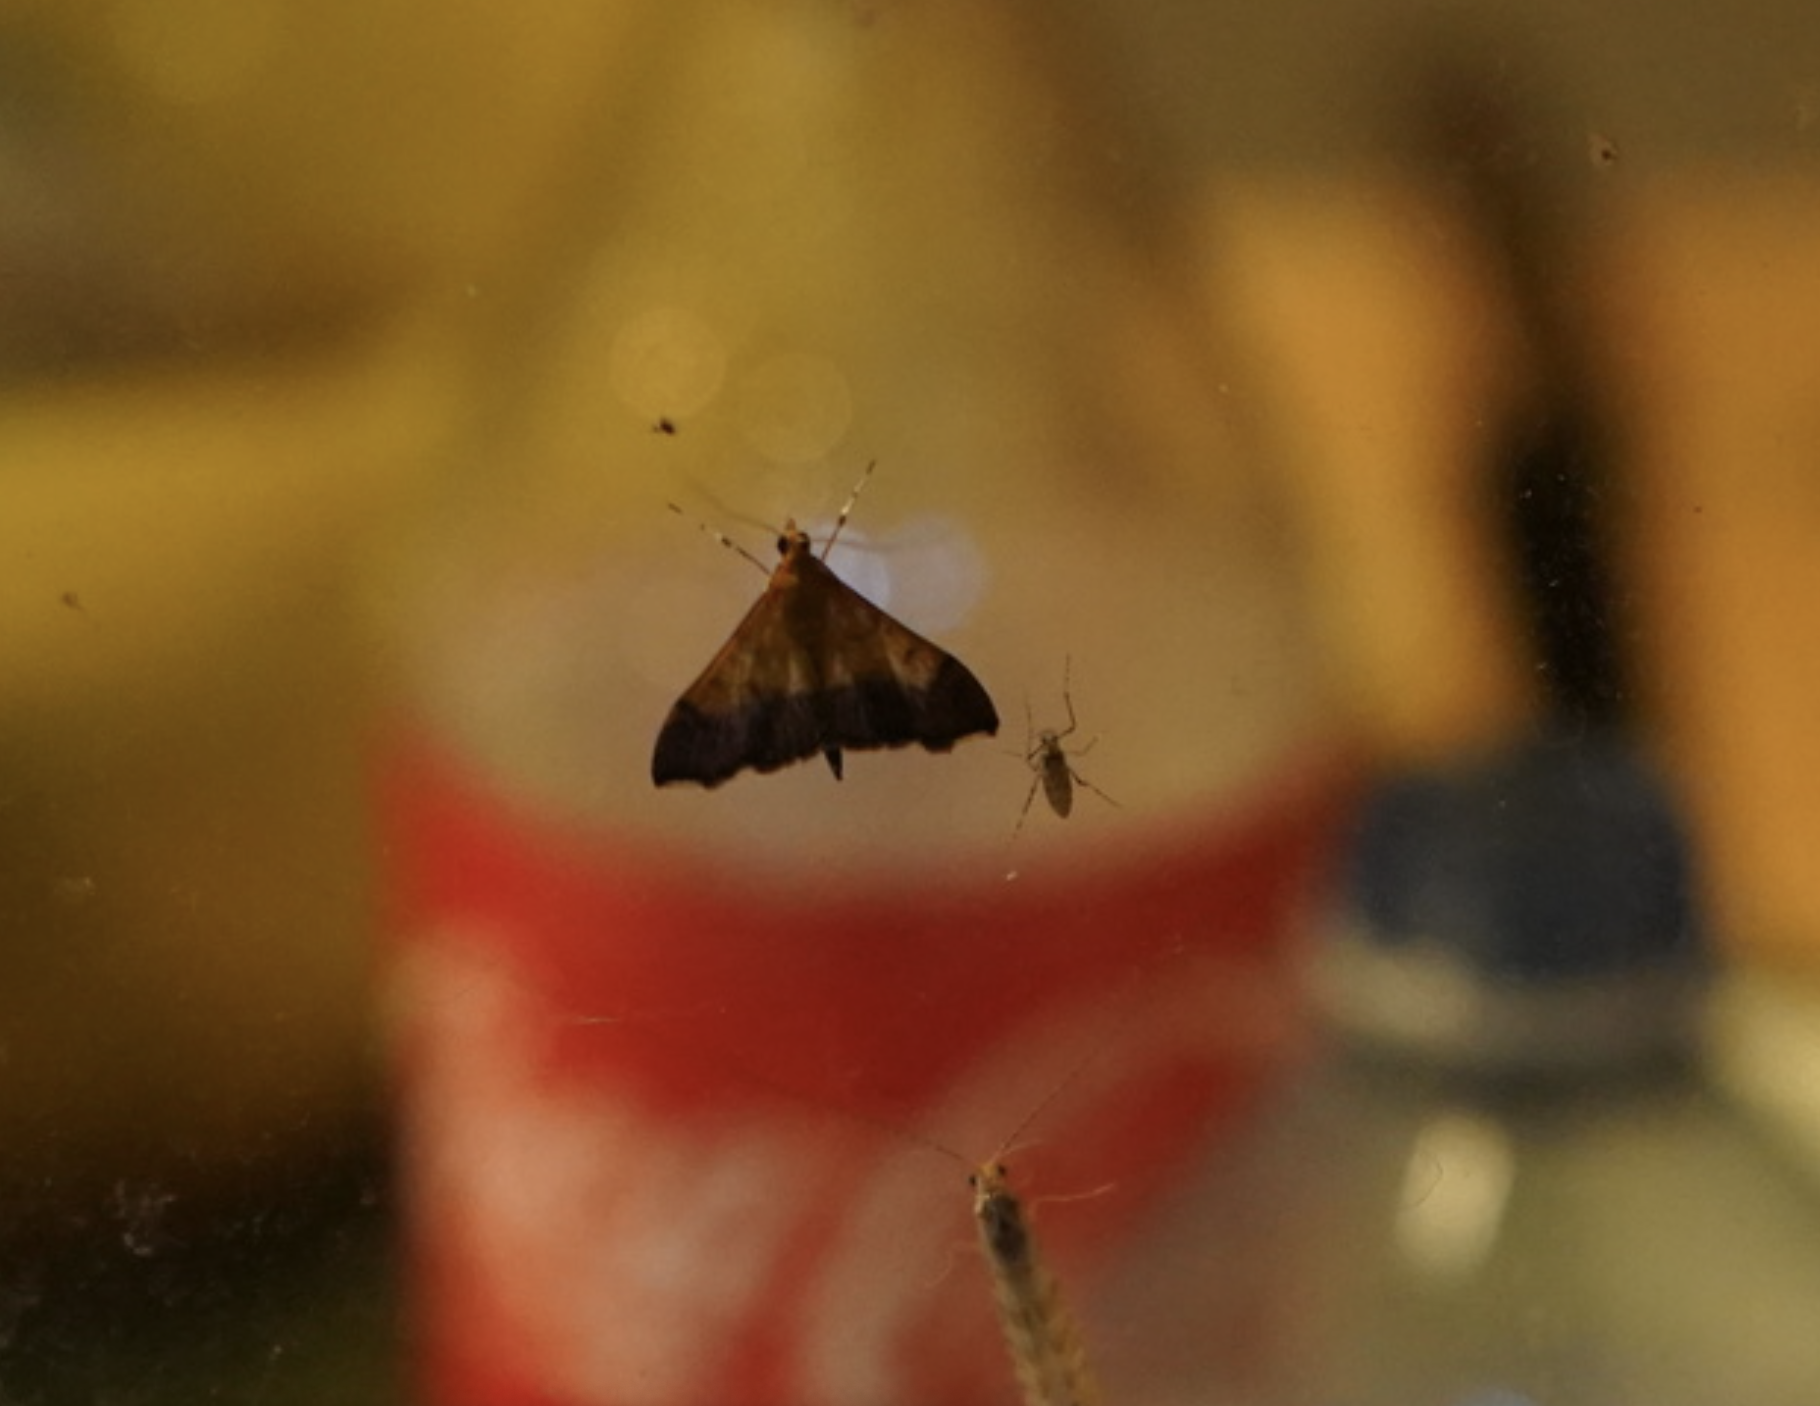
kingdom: Animalia
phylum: Arthropoda
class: Insecta
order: Lepidoptera
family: Crambidae
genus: Pyrausta
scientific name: Pyrausta bicoloralis
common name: Bicolored pyrausta moth
